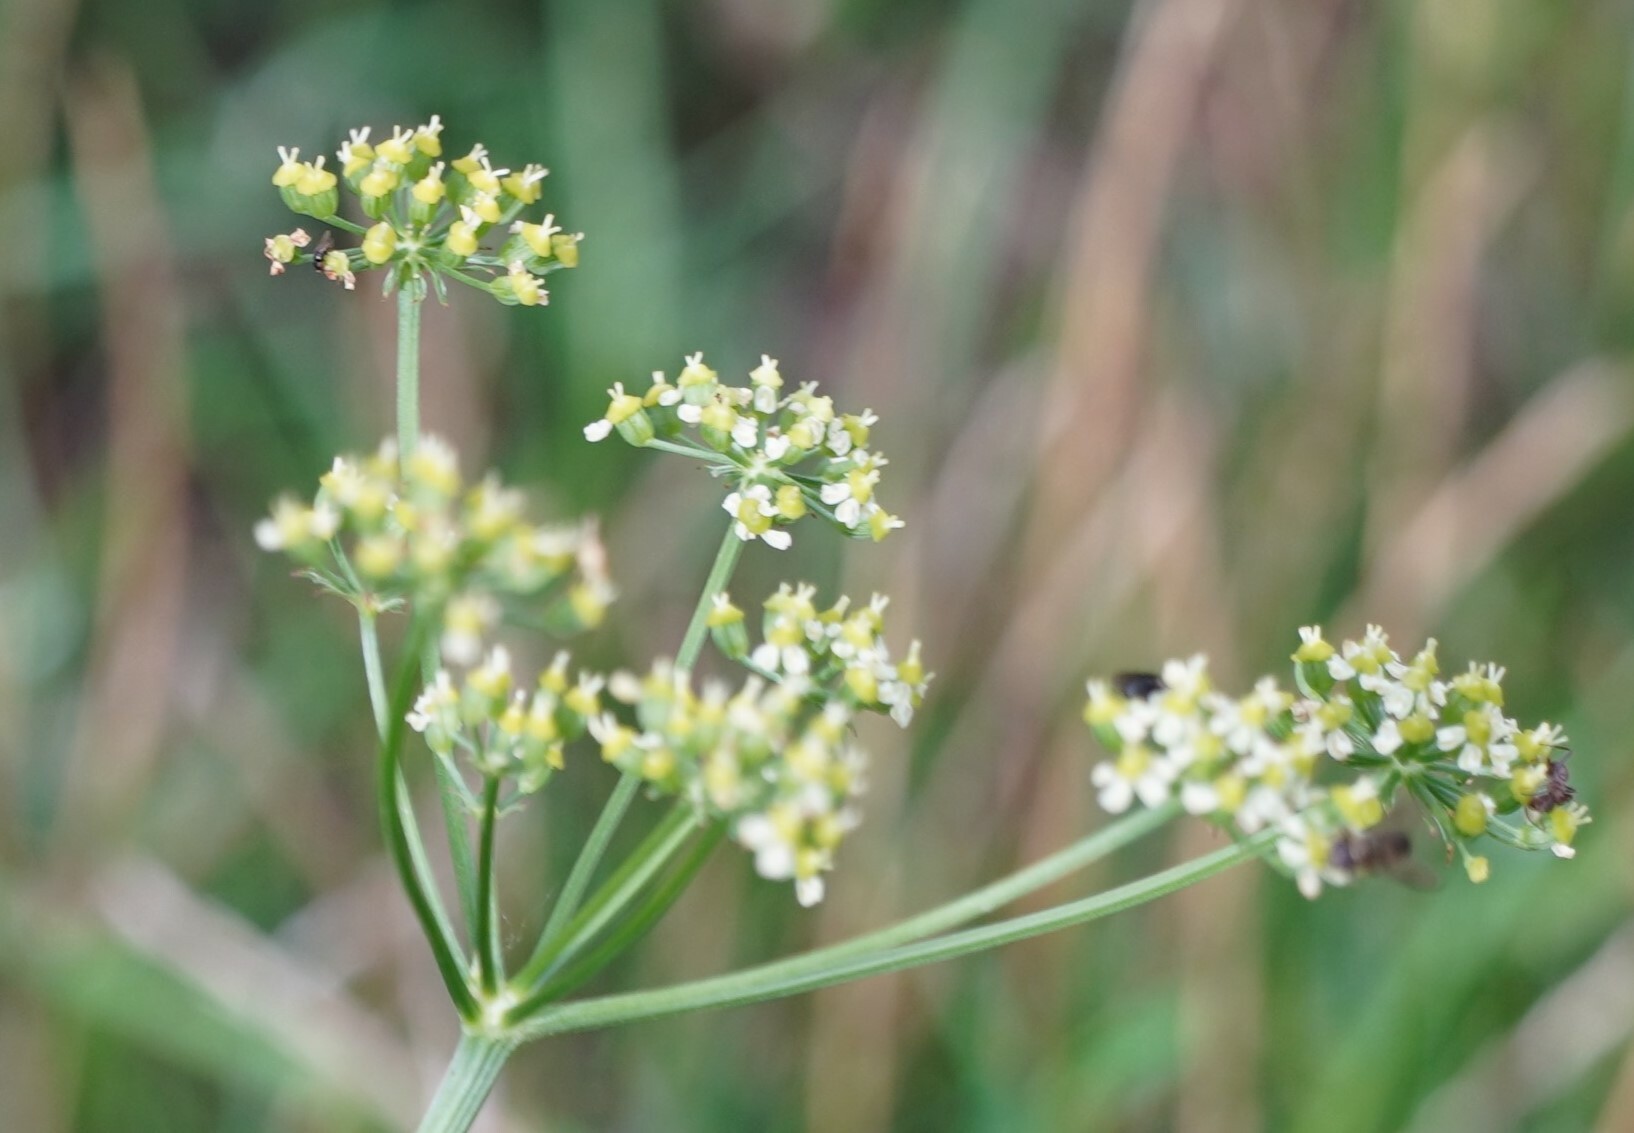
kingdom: Plantae
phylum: Tracheophyta
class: Magnoliopsida
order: Apiales
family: Apiaceae
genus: Silaum
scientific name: Silaum silaus
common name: Pepper-saxifrage
